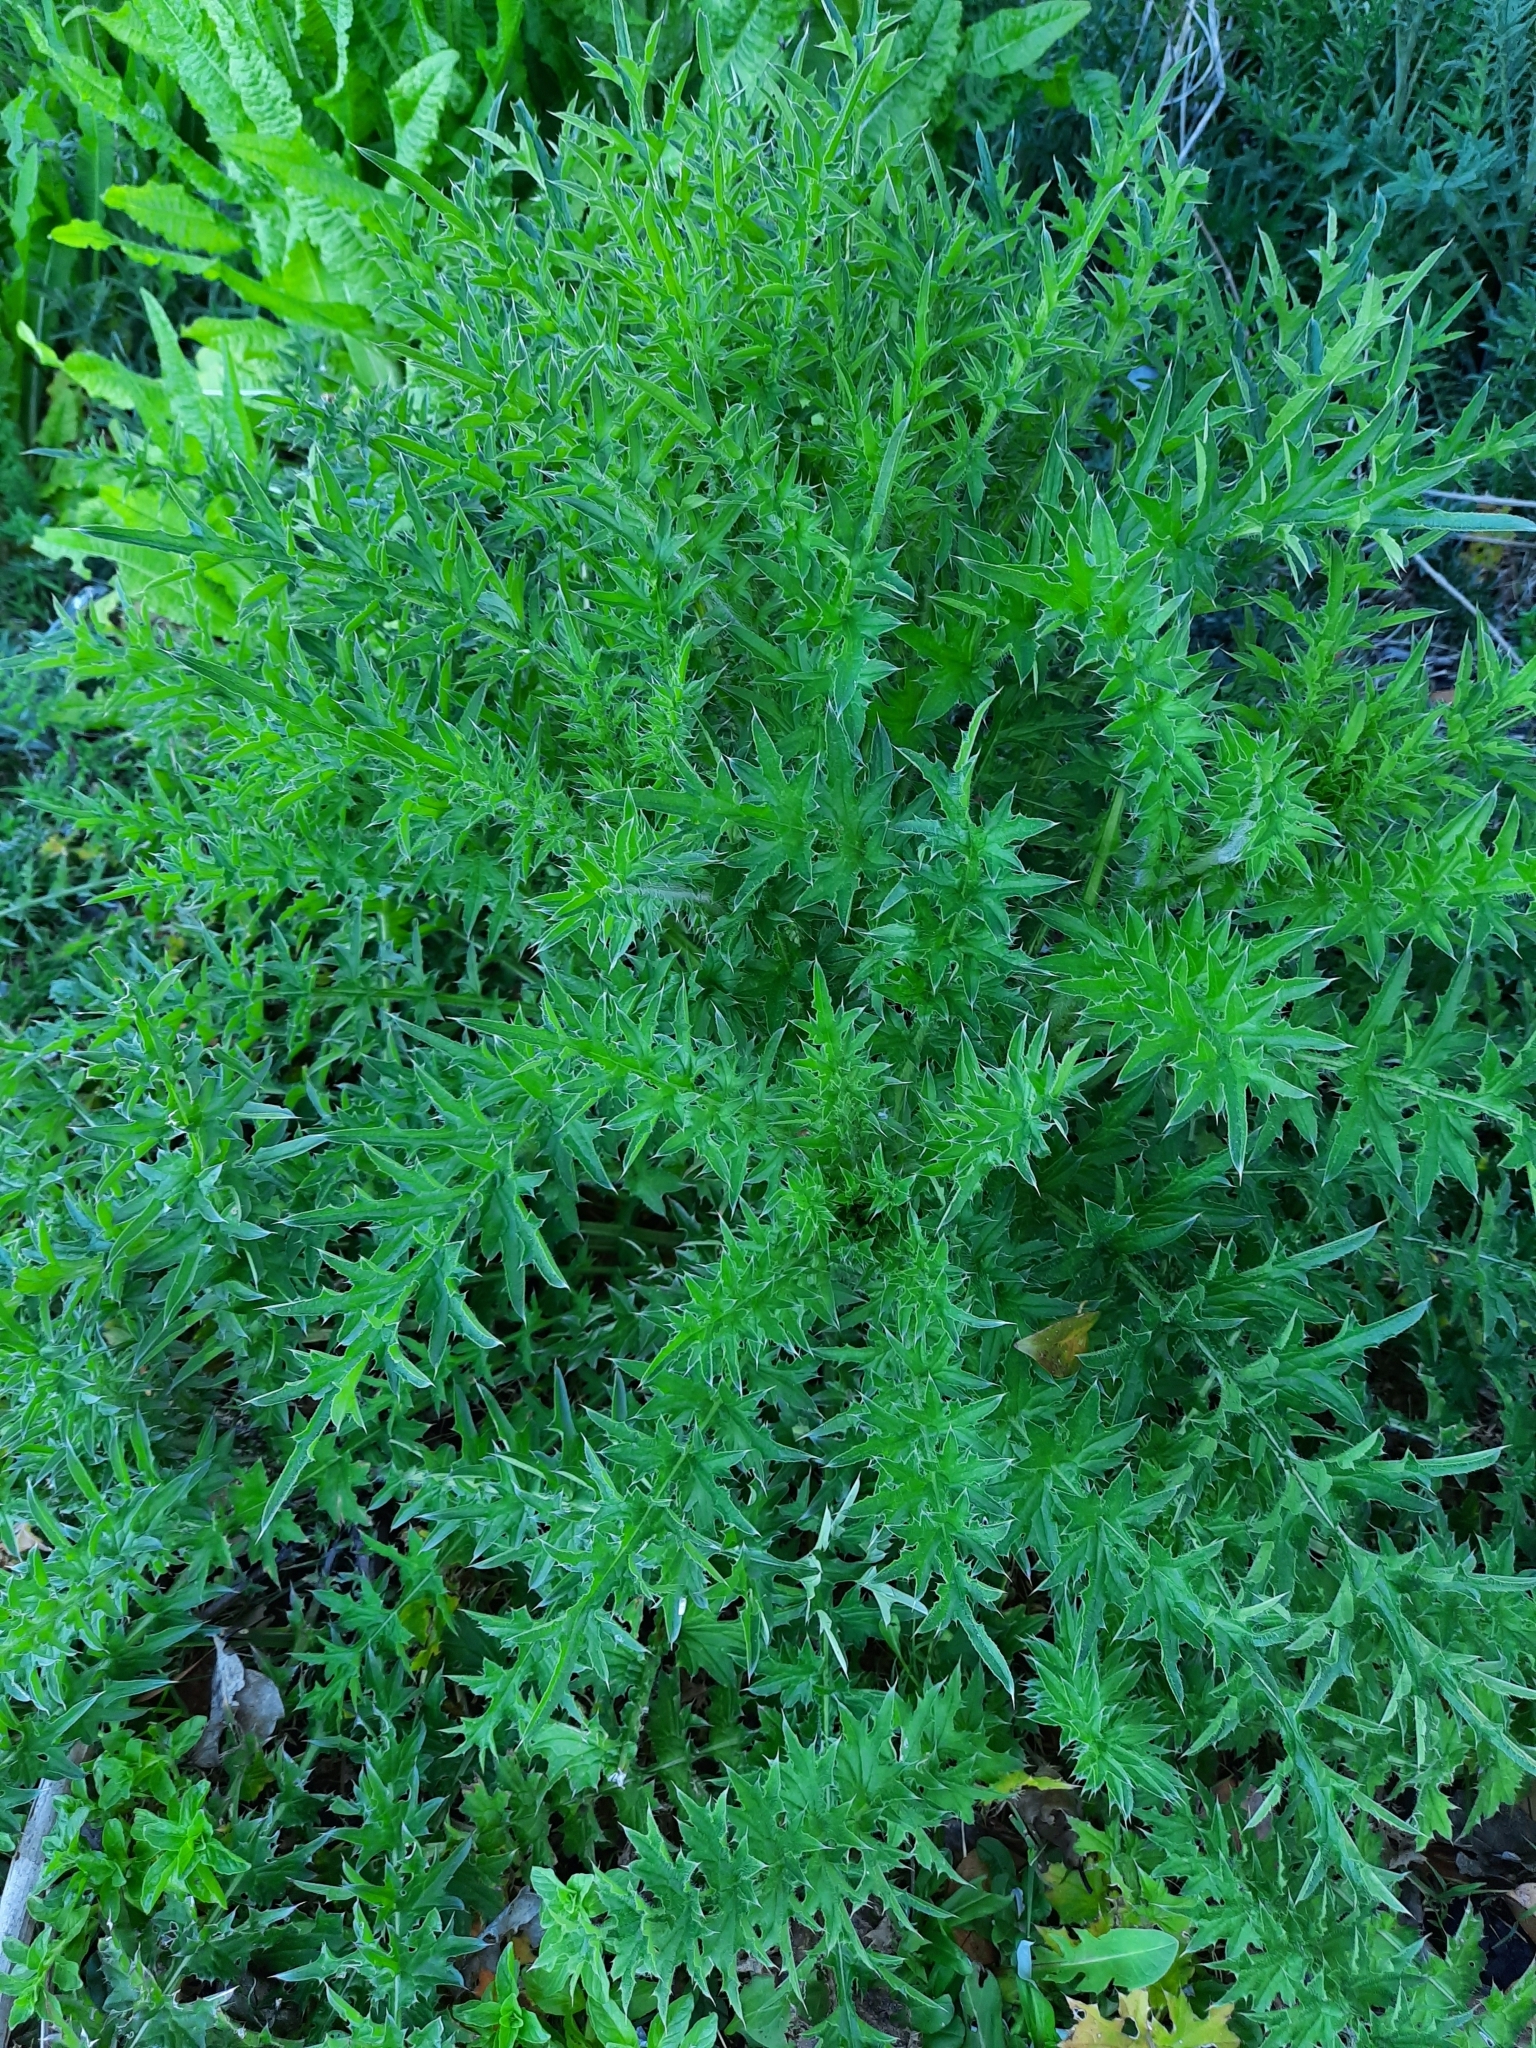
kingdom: Plantae
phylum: Tracheophyta
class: Magnoliopsida
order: Asterales
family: Asteraceae
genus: Carduus
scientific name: Carduus acanthoides
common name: Plumeless thistle
